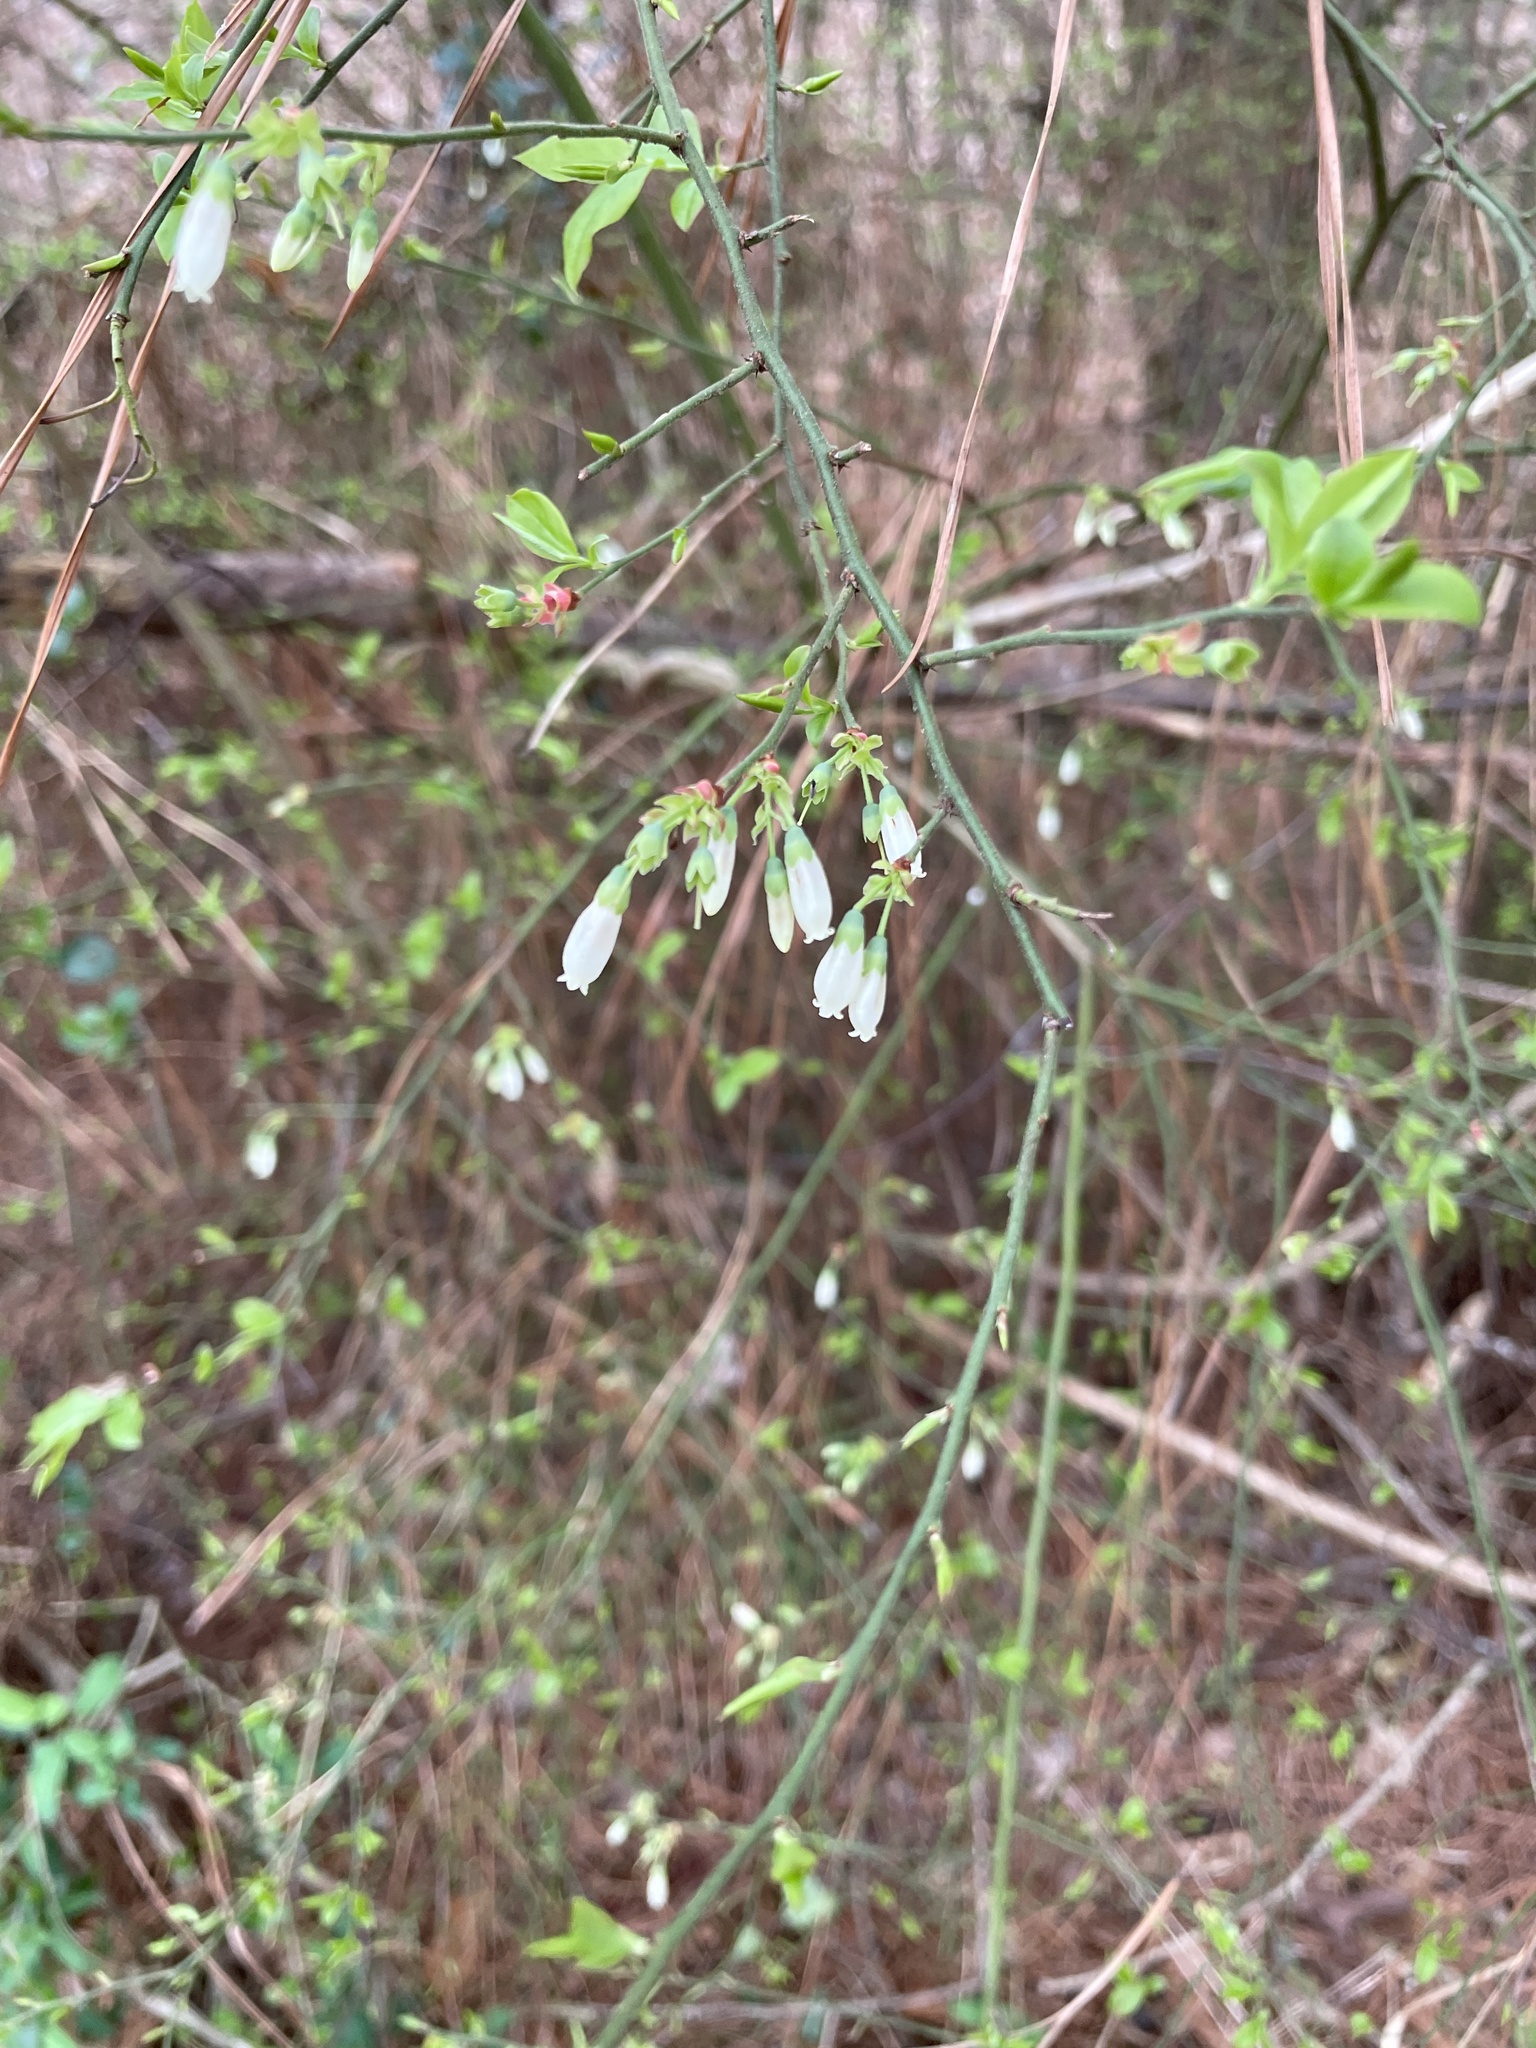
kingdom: Plantae
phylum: Tracheophyta
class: Magnoliopsida
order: Ericales
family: Ericaceae
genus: Vaccinium
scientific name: Vaccinium corymbosum
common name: Blueberry
